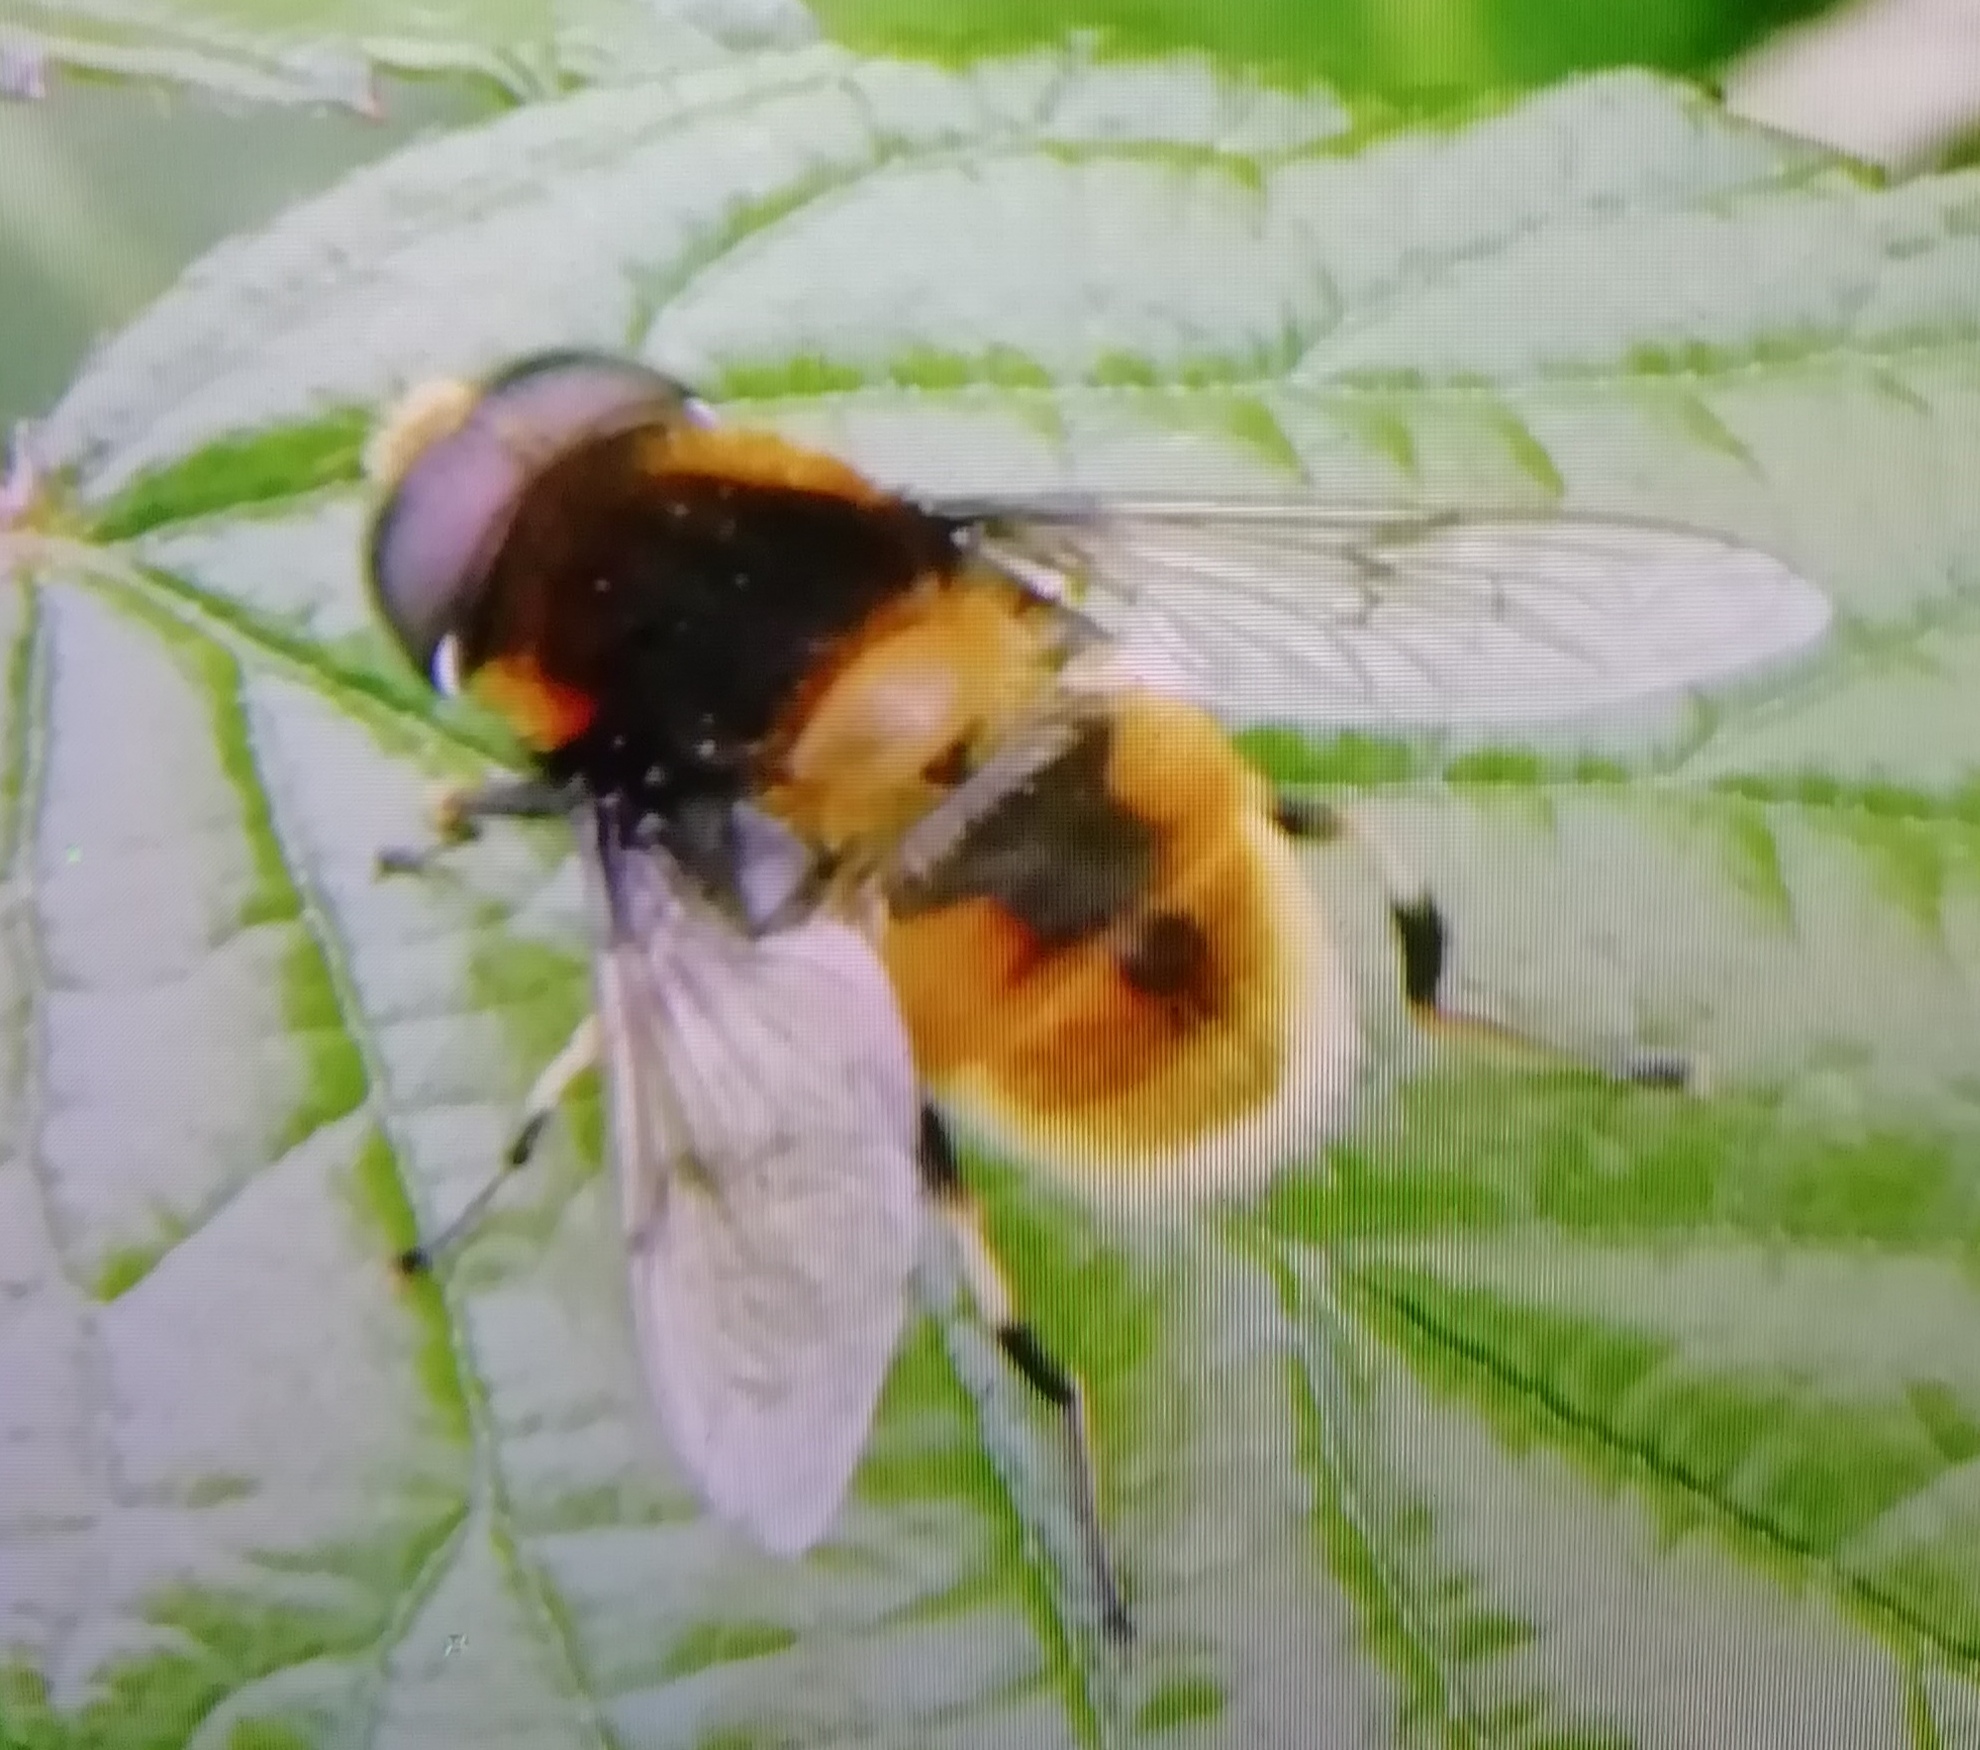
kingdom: Animalia
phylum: Arthropoda
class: Insecta
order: Diptera
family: Syrphidae
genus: Eristalis
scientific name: Eristalis intricaria
